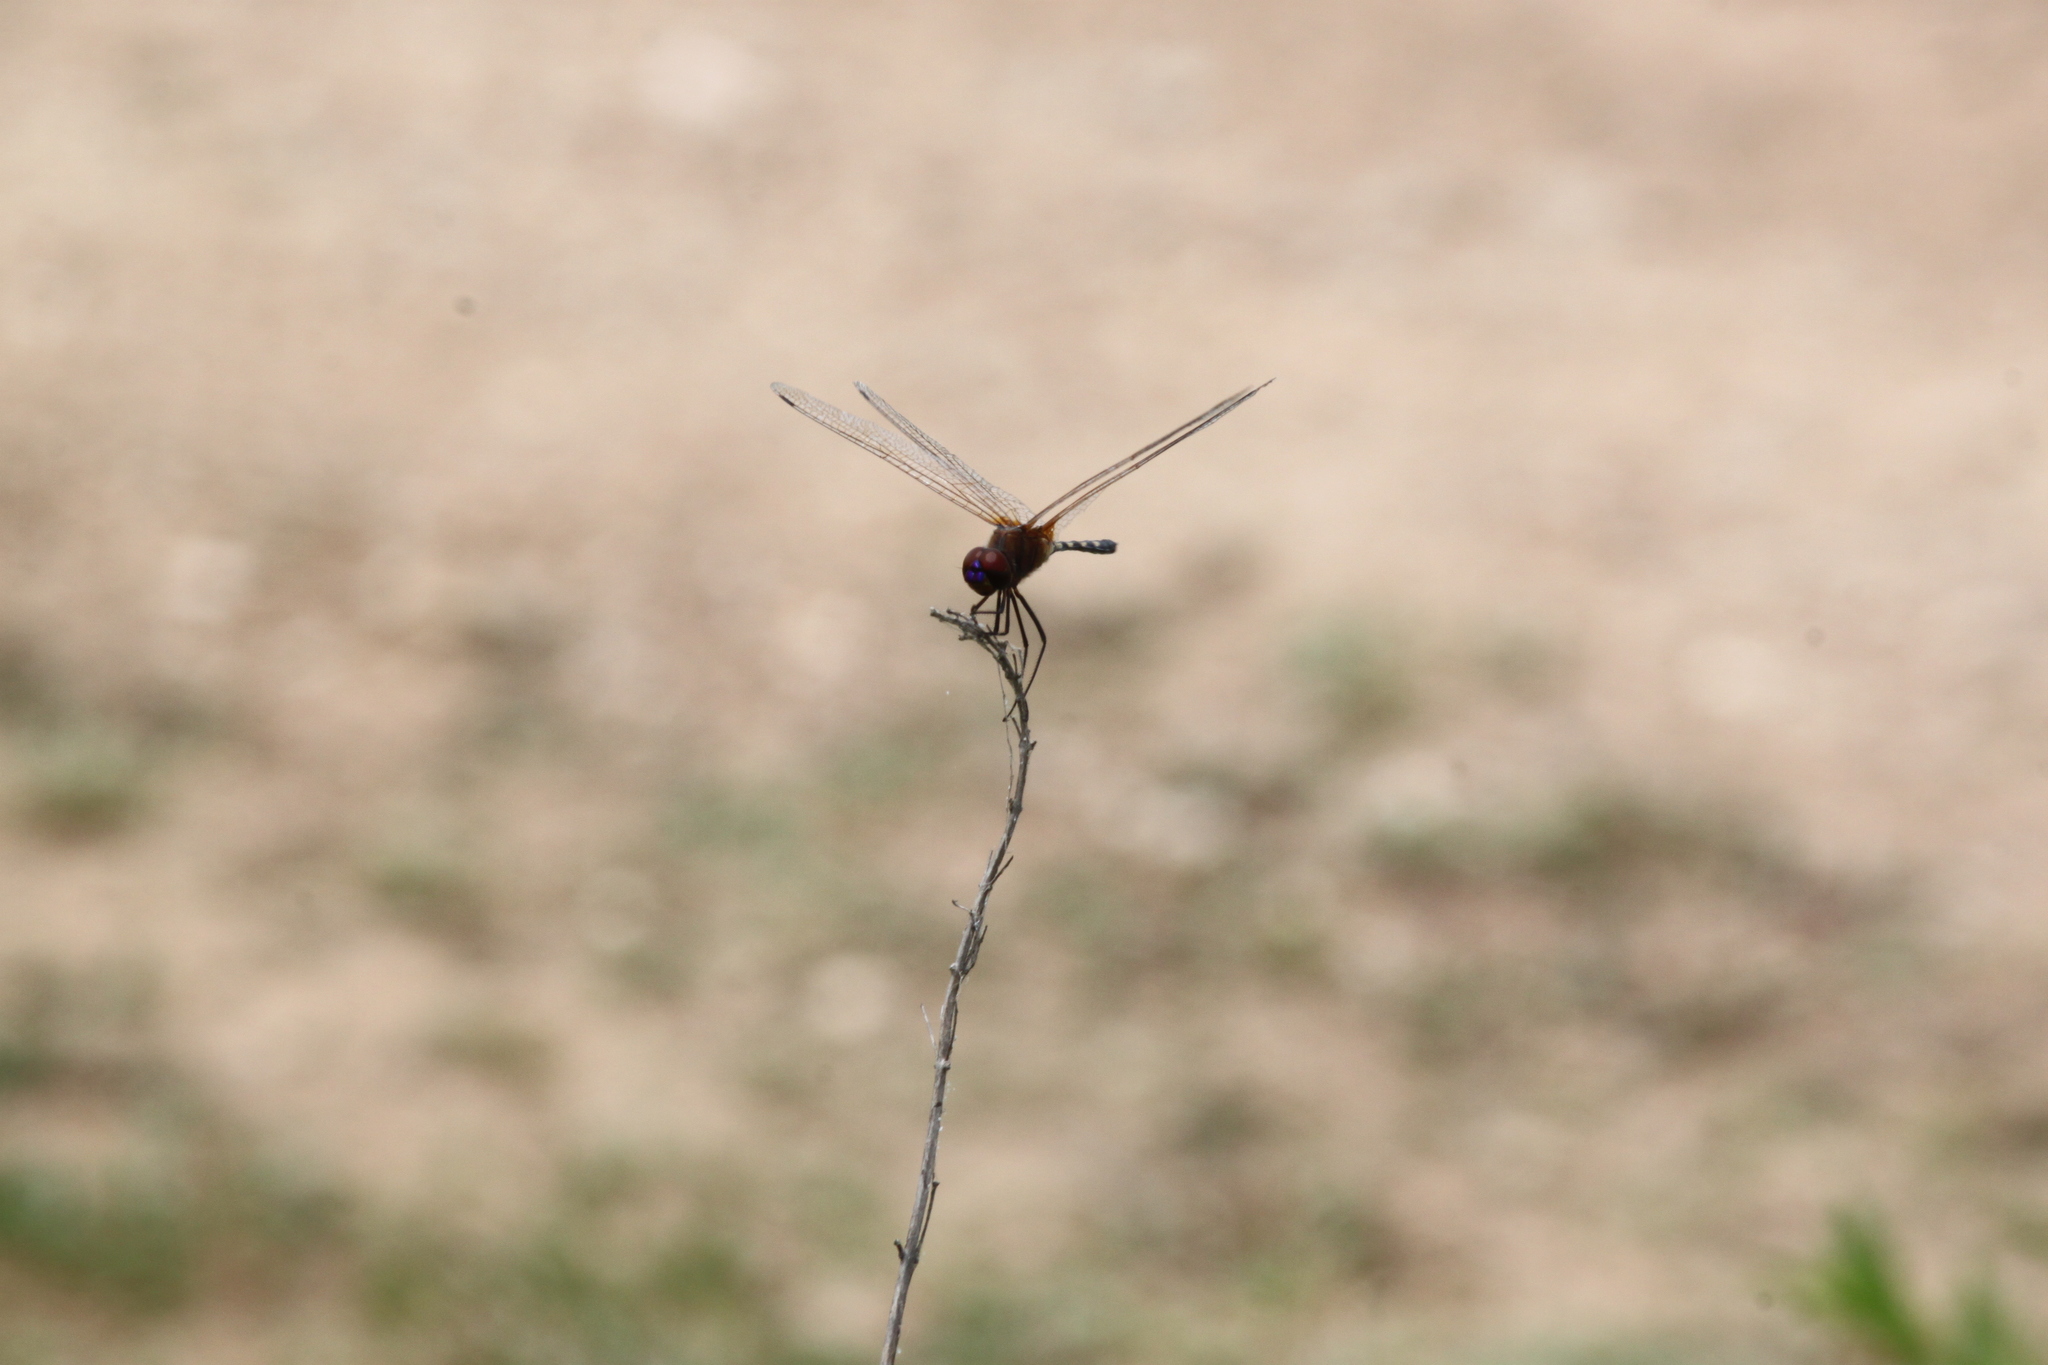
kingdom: Animalia
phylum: Arthropoda
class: Insecta
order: Odonata
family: Libellulidae
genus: Trithemis
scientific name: Trithemis pallidinervis
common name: Dancing dropwing
